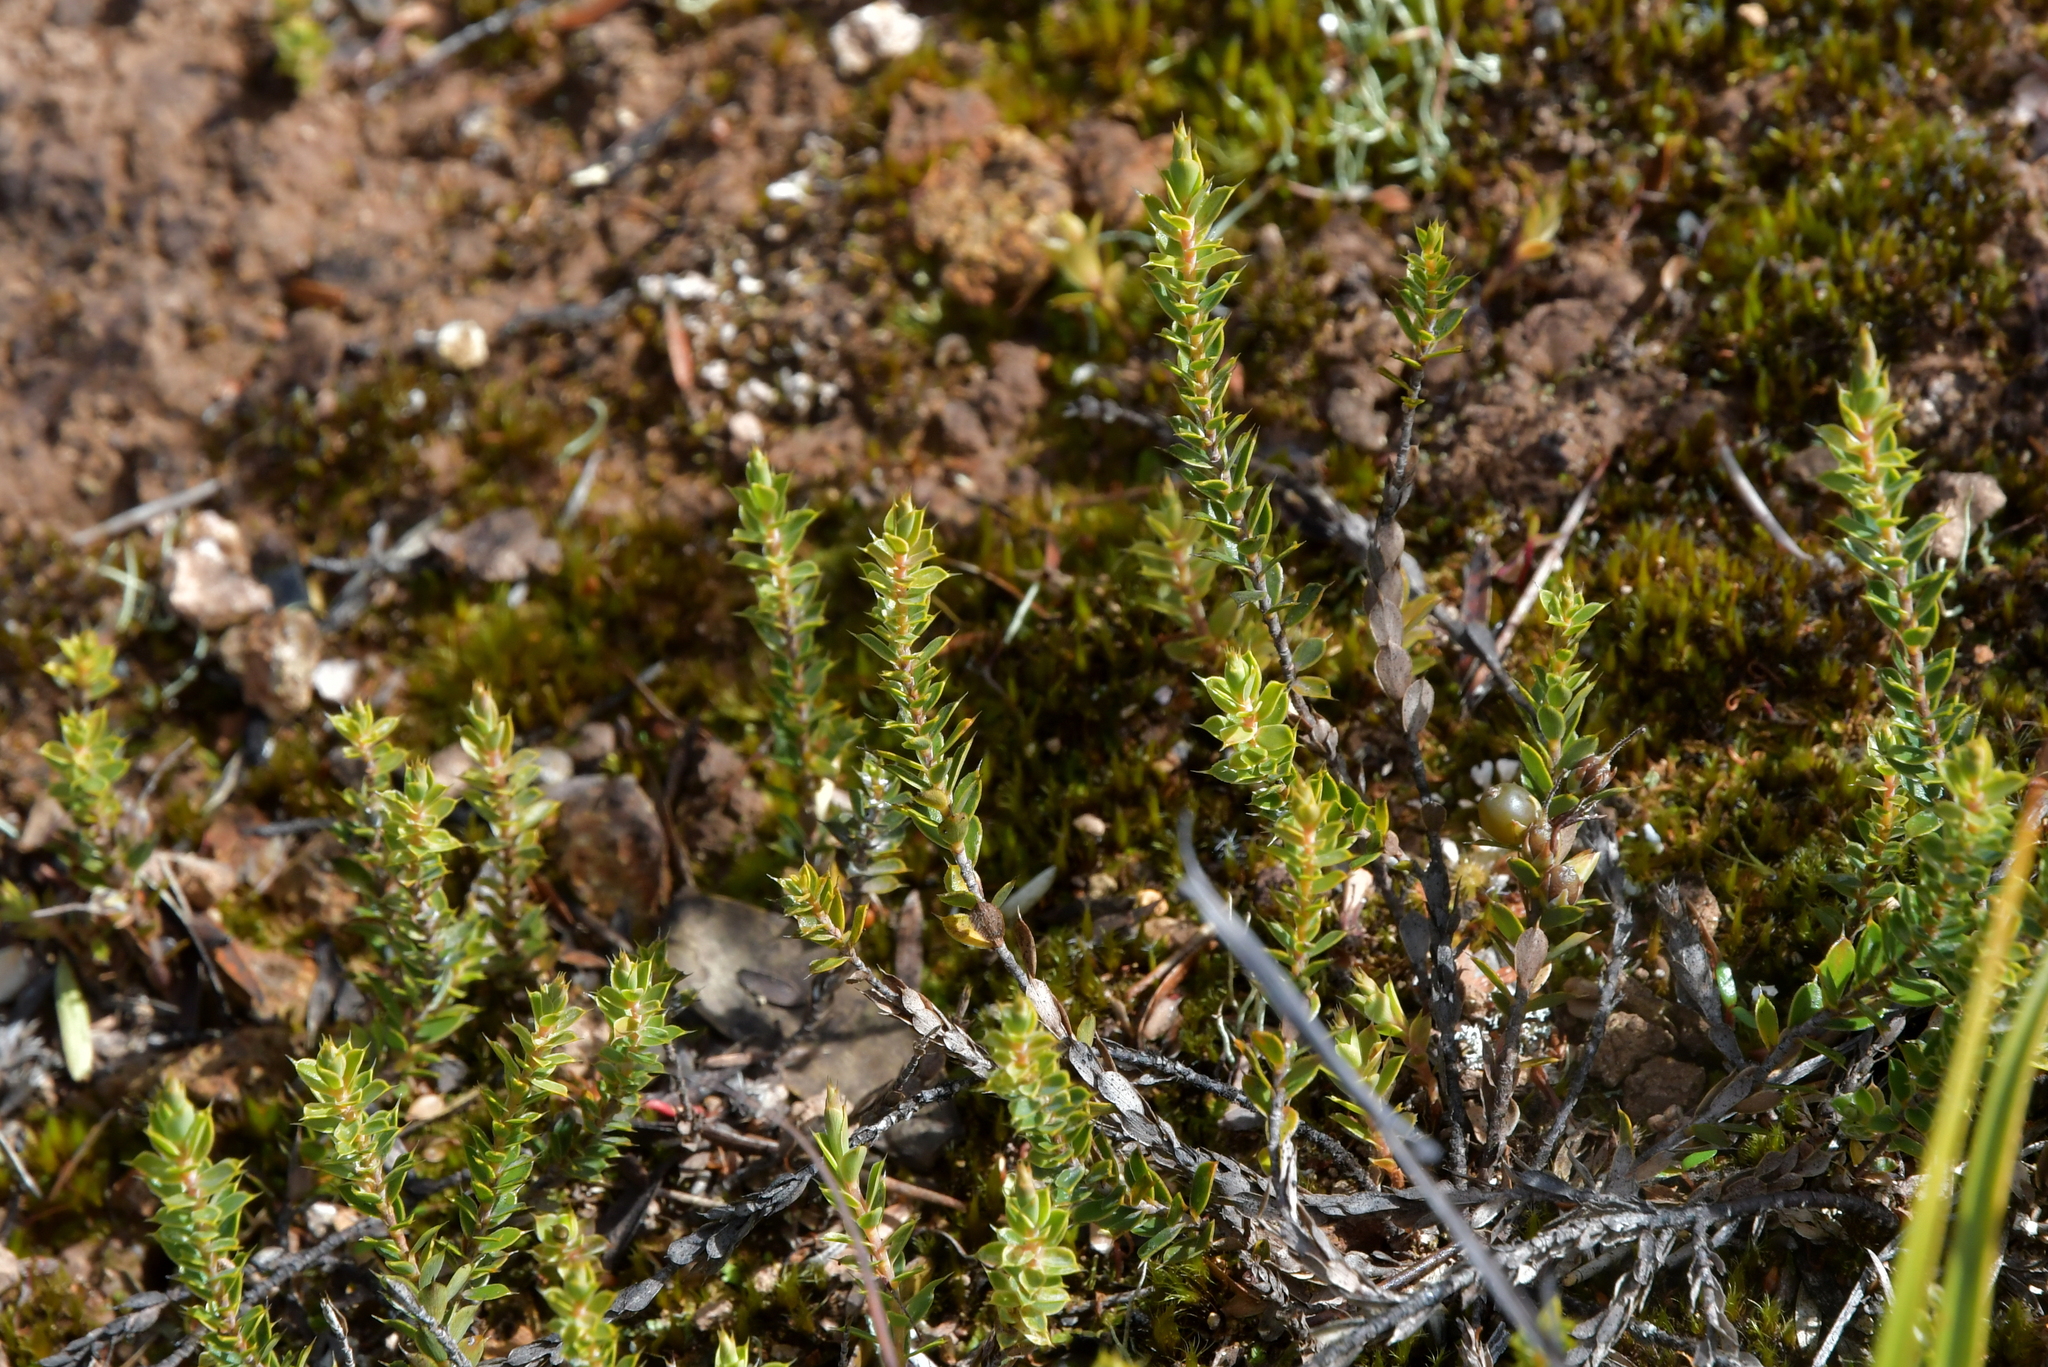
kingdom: Plantae
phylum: Tracheophyta
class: Magnoliopsida
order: Ericales
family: Ericaceae
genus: Styphelia
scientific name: Styphelia nesophila
